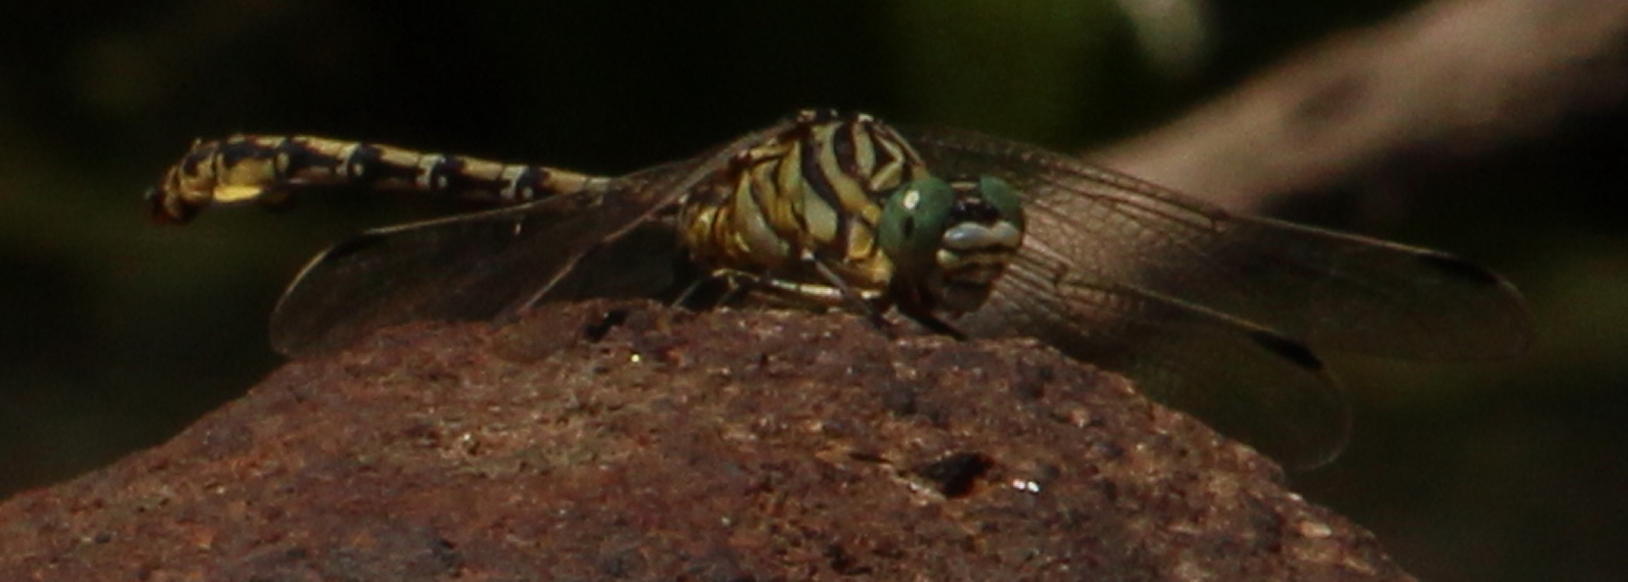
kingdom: Animalia
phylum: Arthropoda
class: Insecta
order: Odonata
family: Gomphidae
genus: Ceratogomphus
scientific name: Ceratogomphus pictus
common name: Common thorntail
